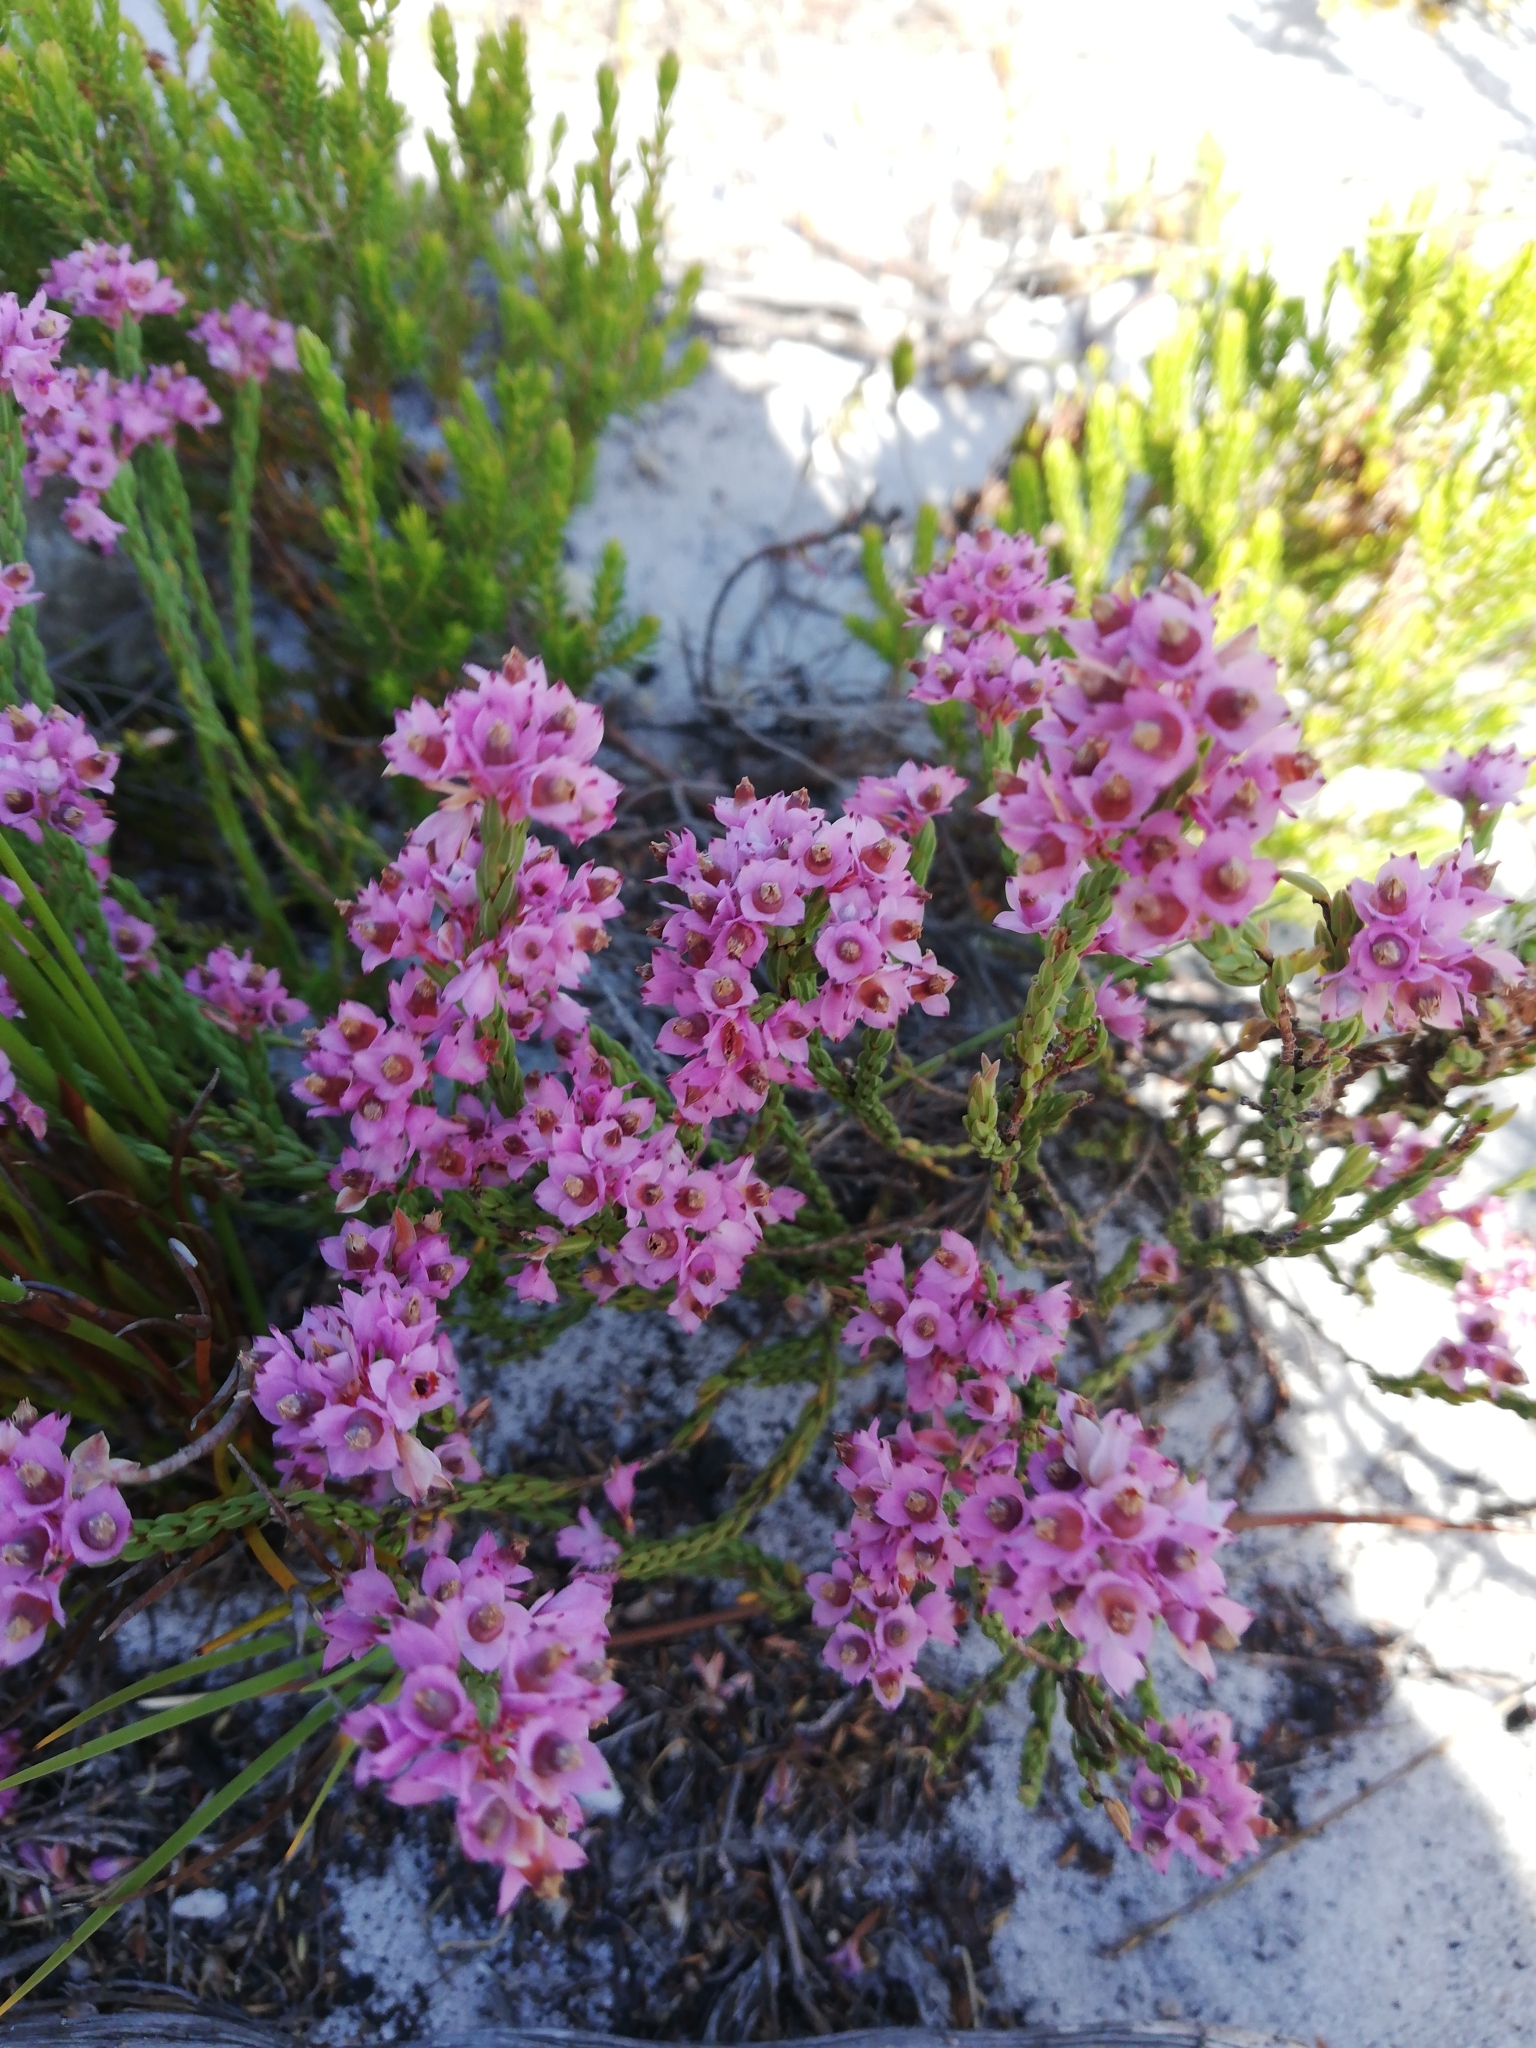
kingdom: Plantae
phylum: Tracheophyta
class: Magnoliopsida
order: Ericales
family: Ericaceae
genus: Erica
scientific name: Erica corifolia
